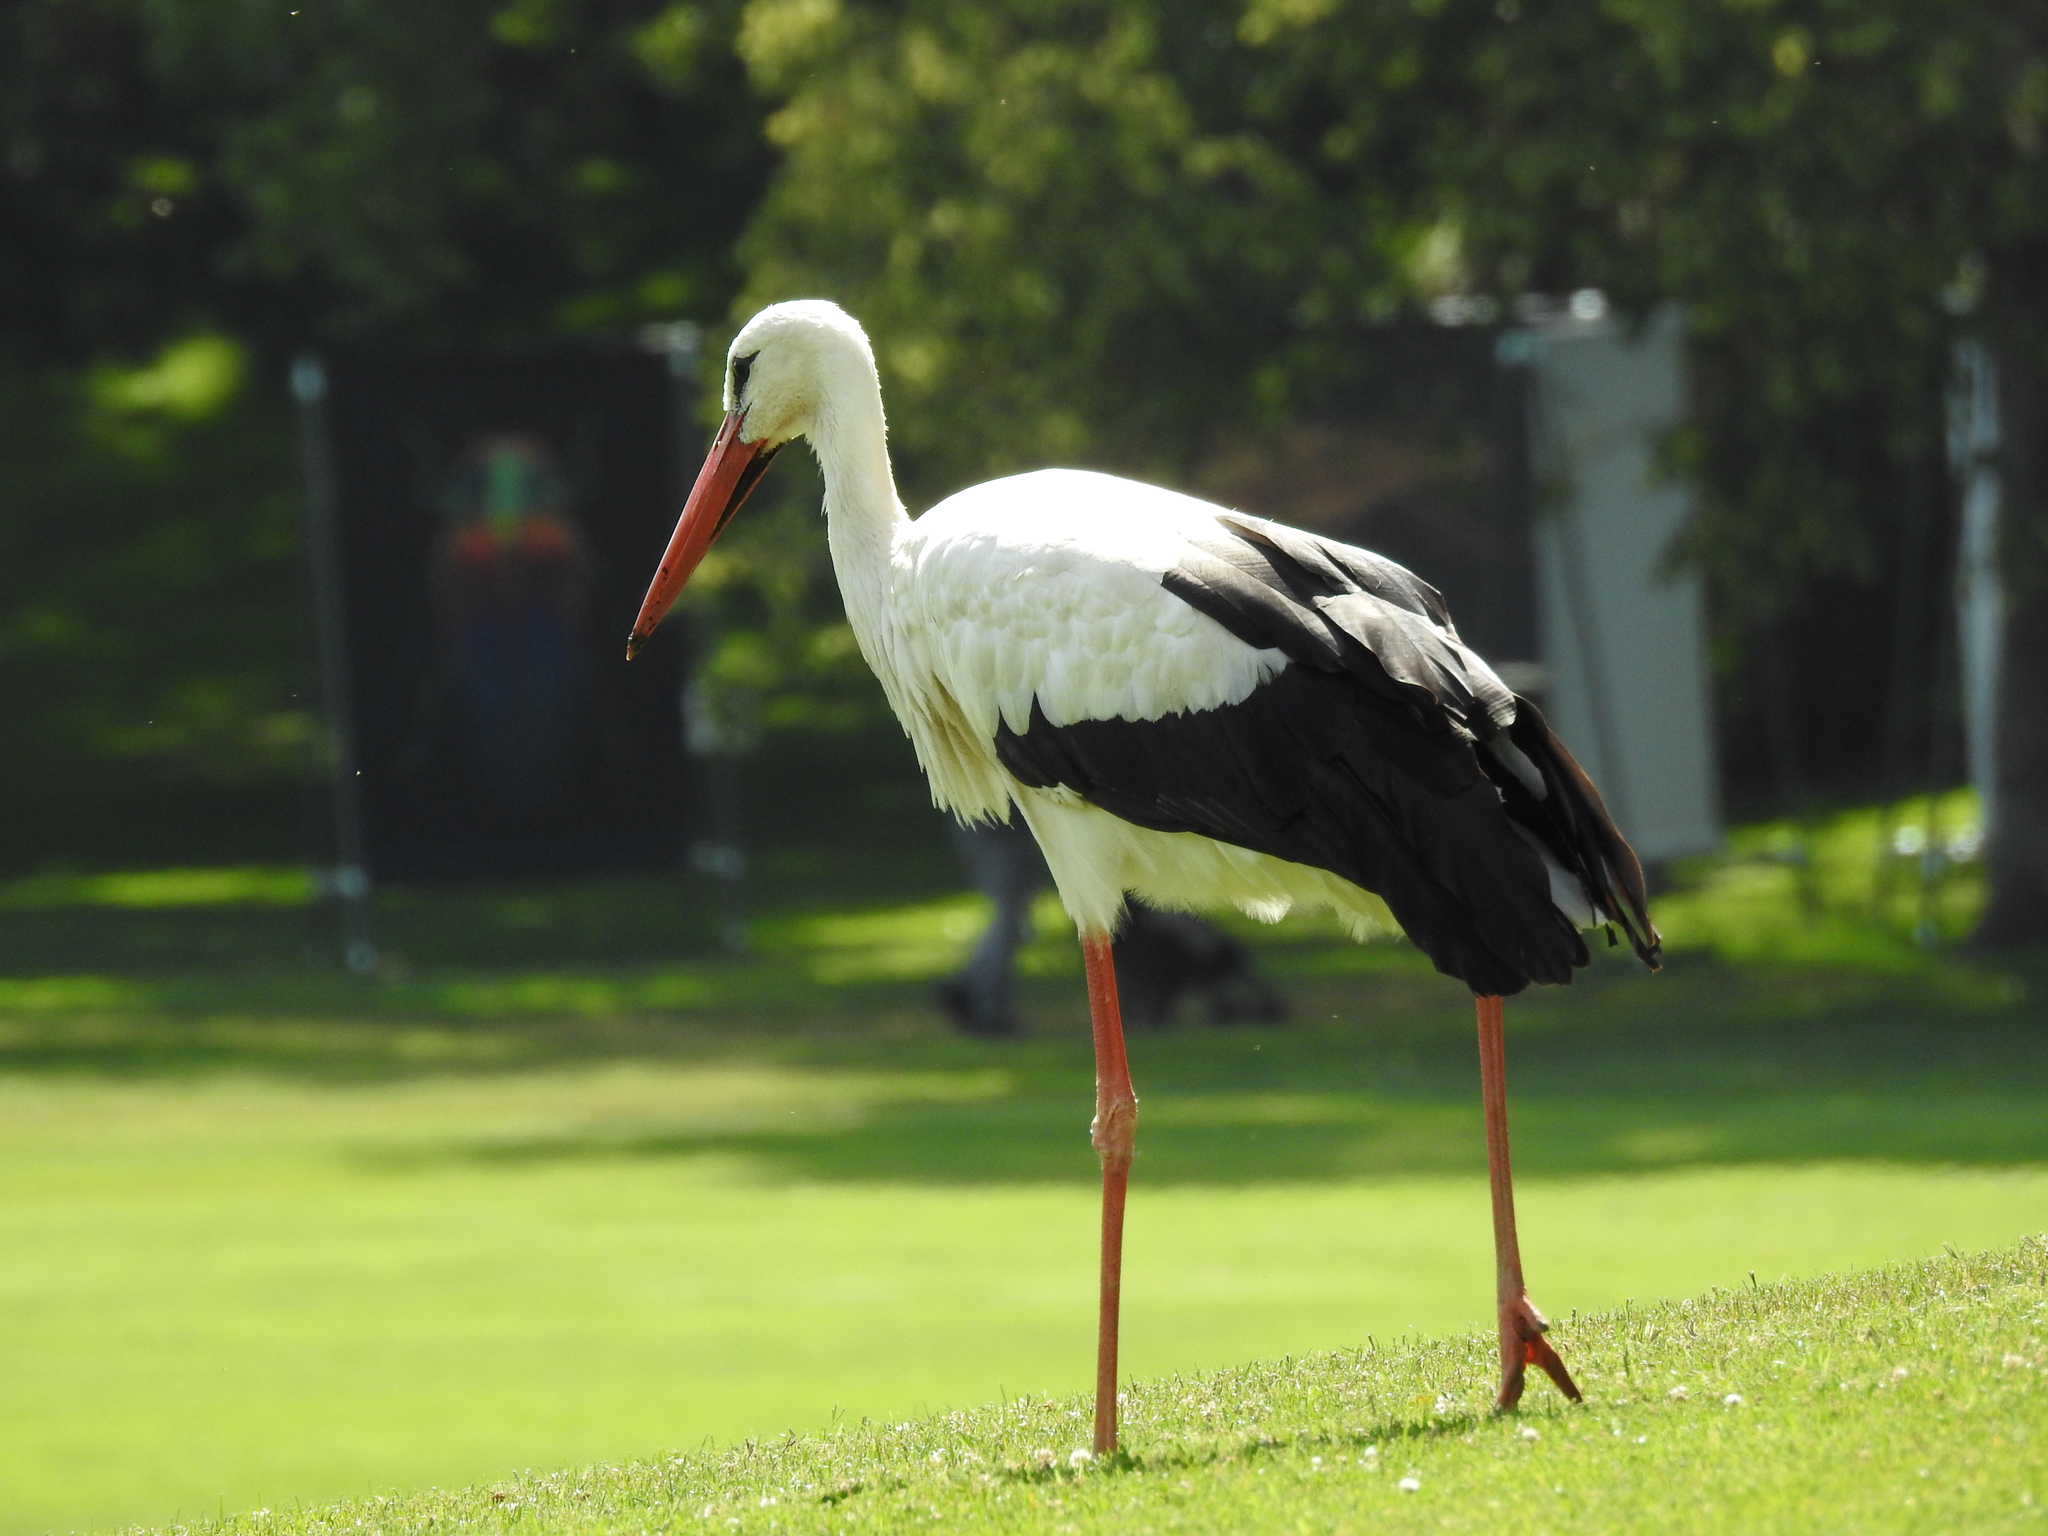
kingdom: Animalia
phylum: Chordata
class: Aves
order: Ciconiiformes
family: Ciconiidae
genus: Ciconia
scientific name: Ciconia ciconia
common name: White stork
